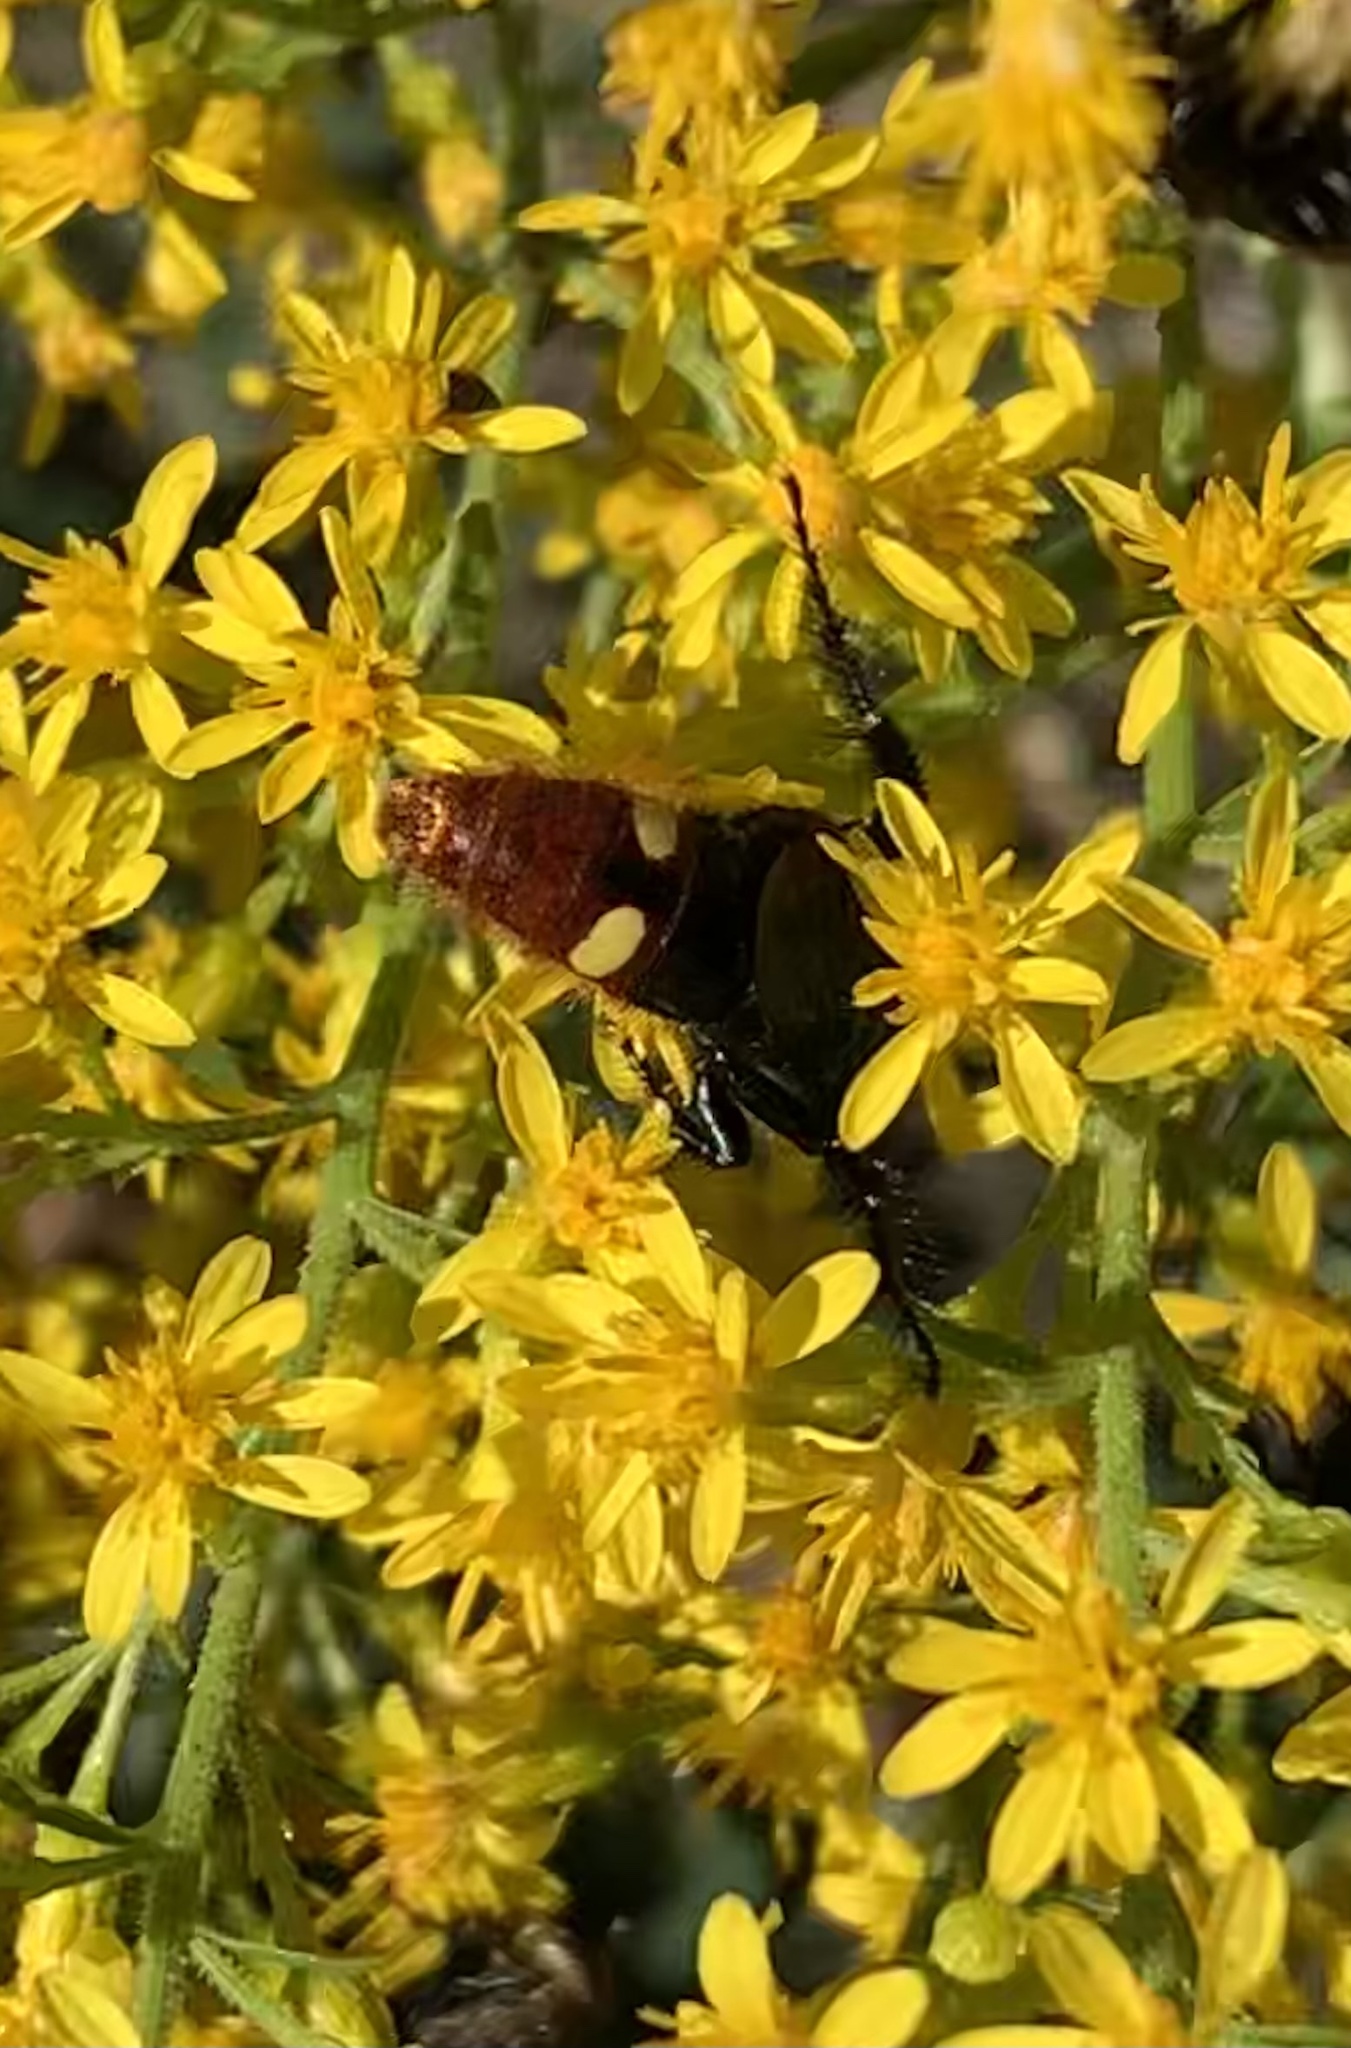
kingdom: Animalia
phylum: Arthropoda
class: Insecta
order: Hymenoptera
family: Scoliidae
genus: Scolia
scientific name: Scolia dubia
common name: Blue-winged scoliid wasp
